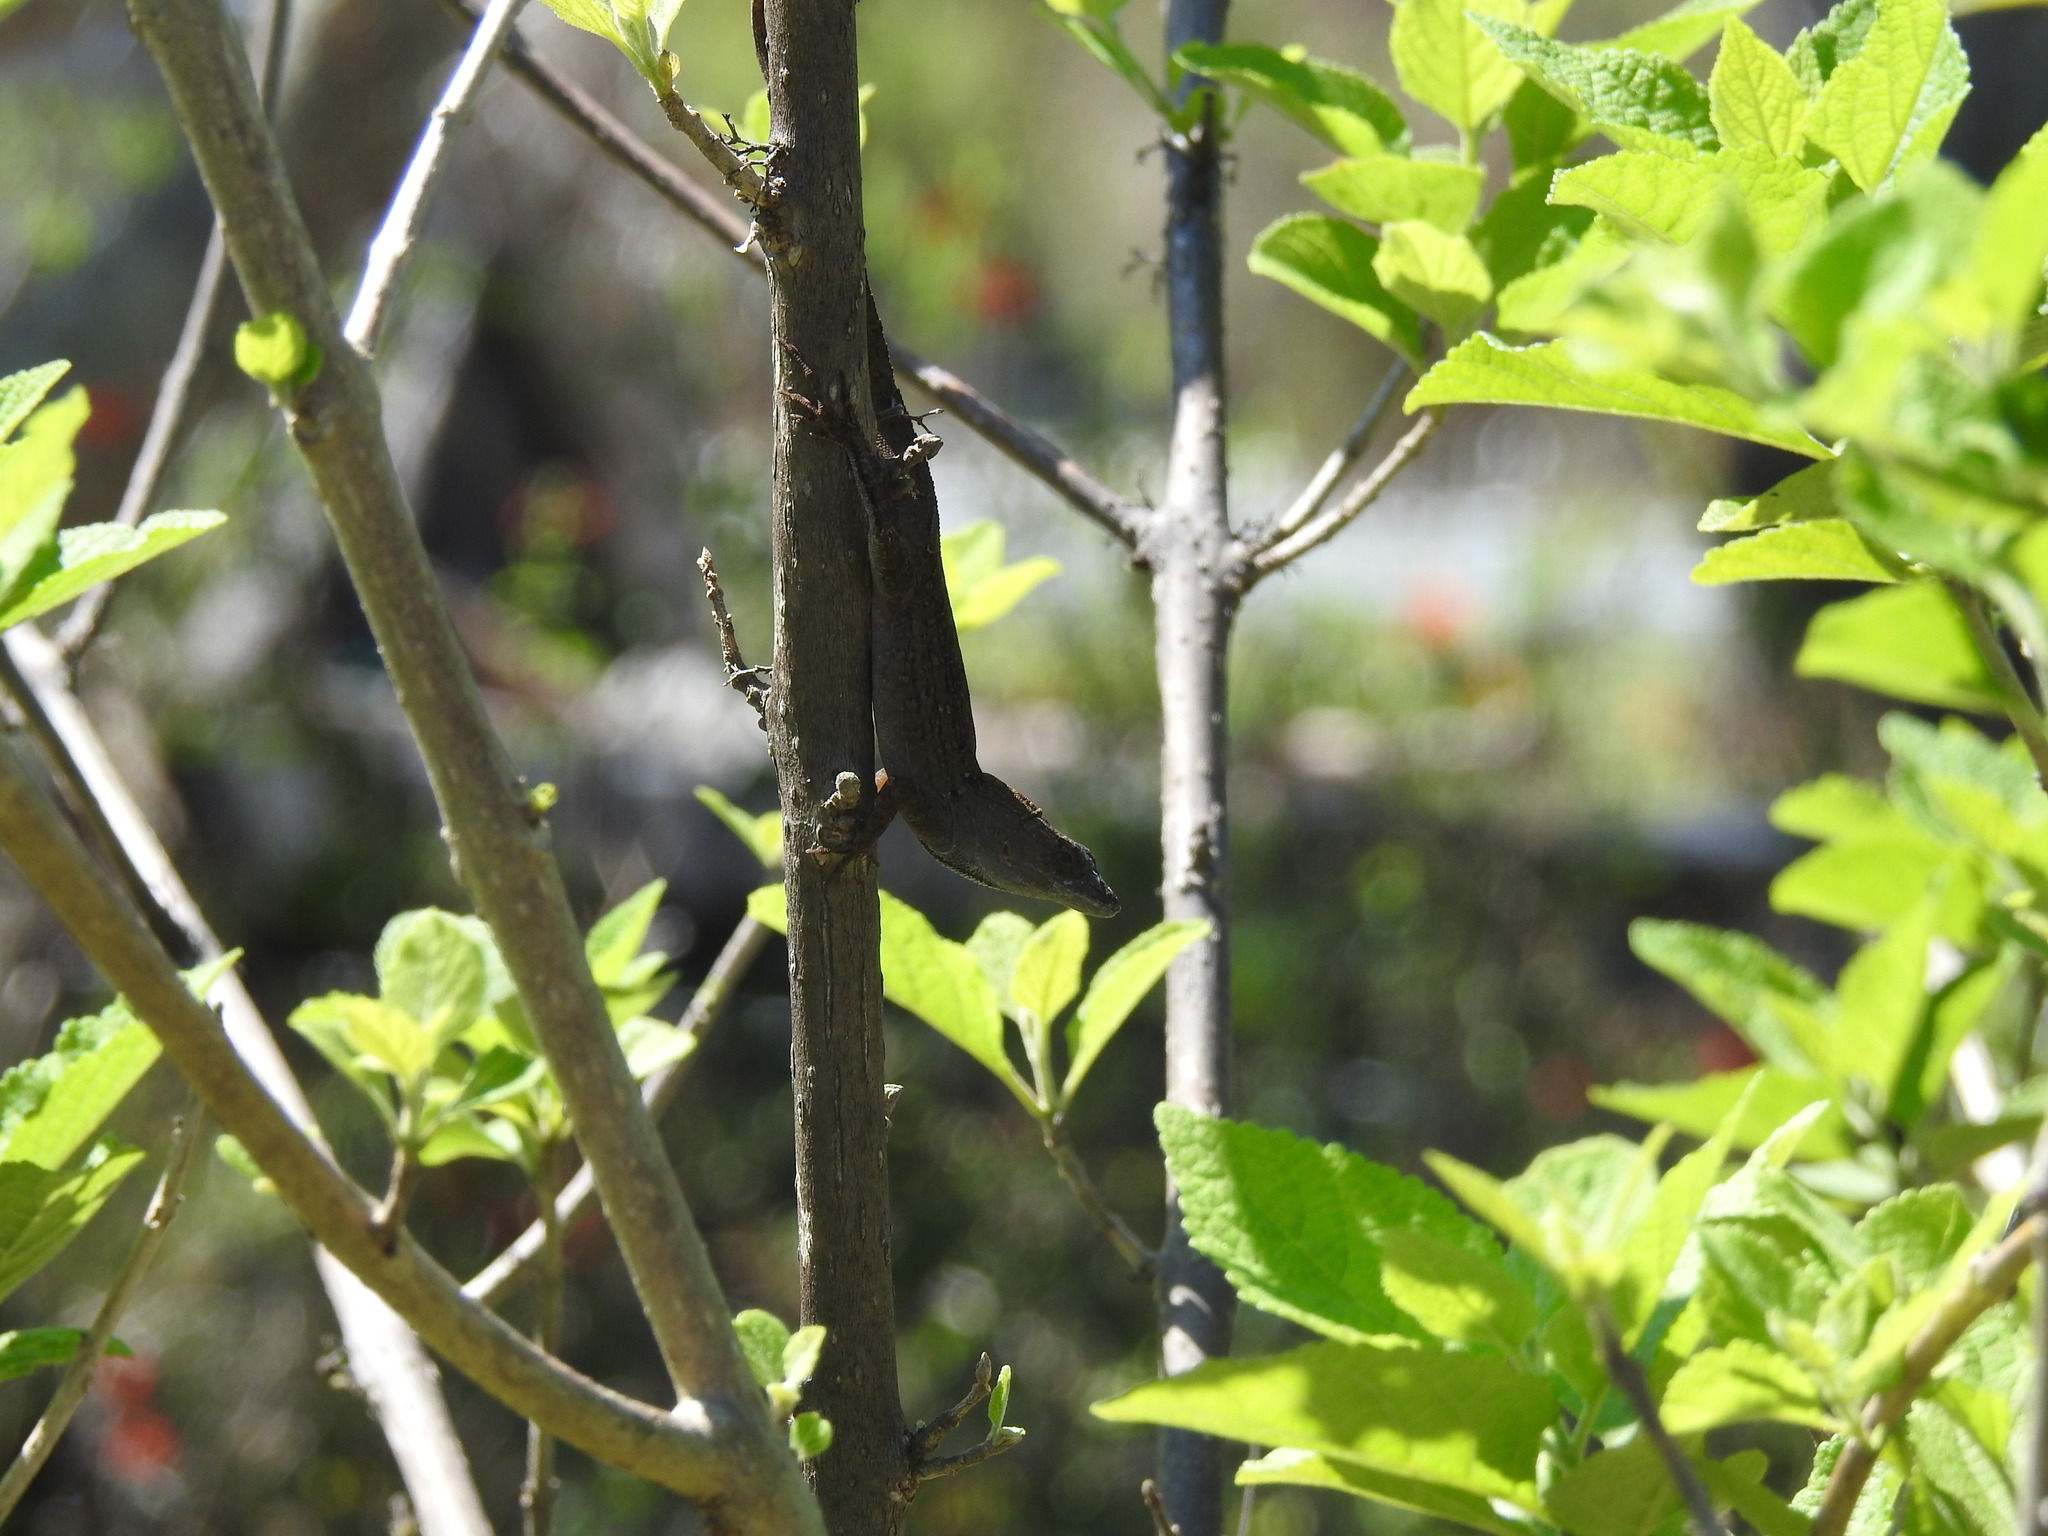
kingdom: Animalia
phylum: Chordata
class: Squamata
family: Dactyloidae
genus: Anolis
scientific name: Anolis sagrei
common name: Brown anole
